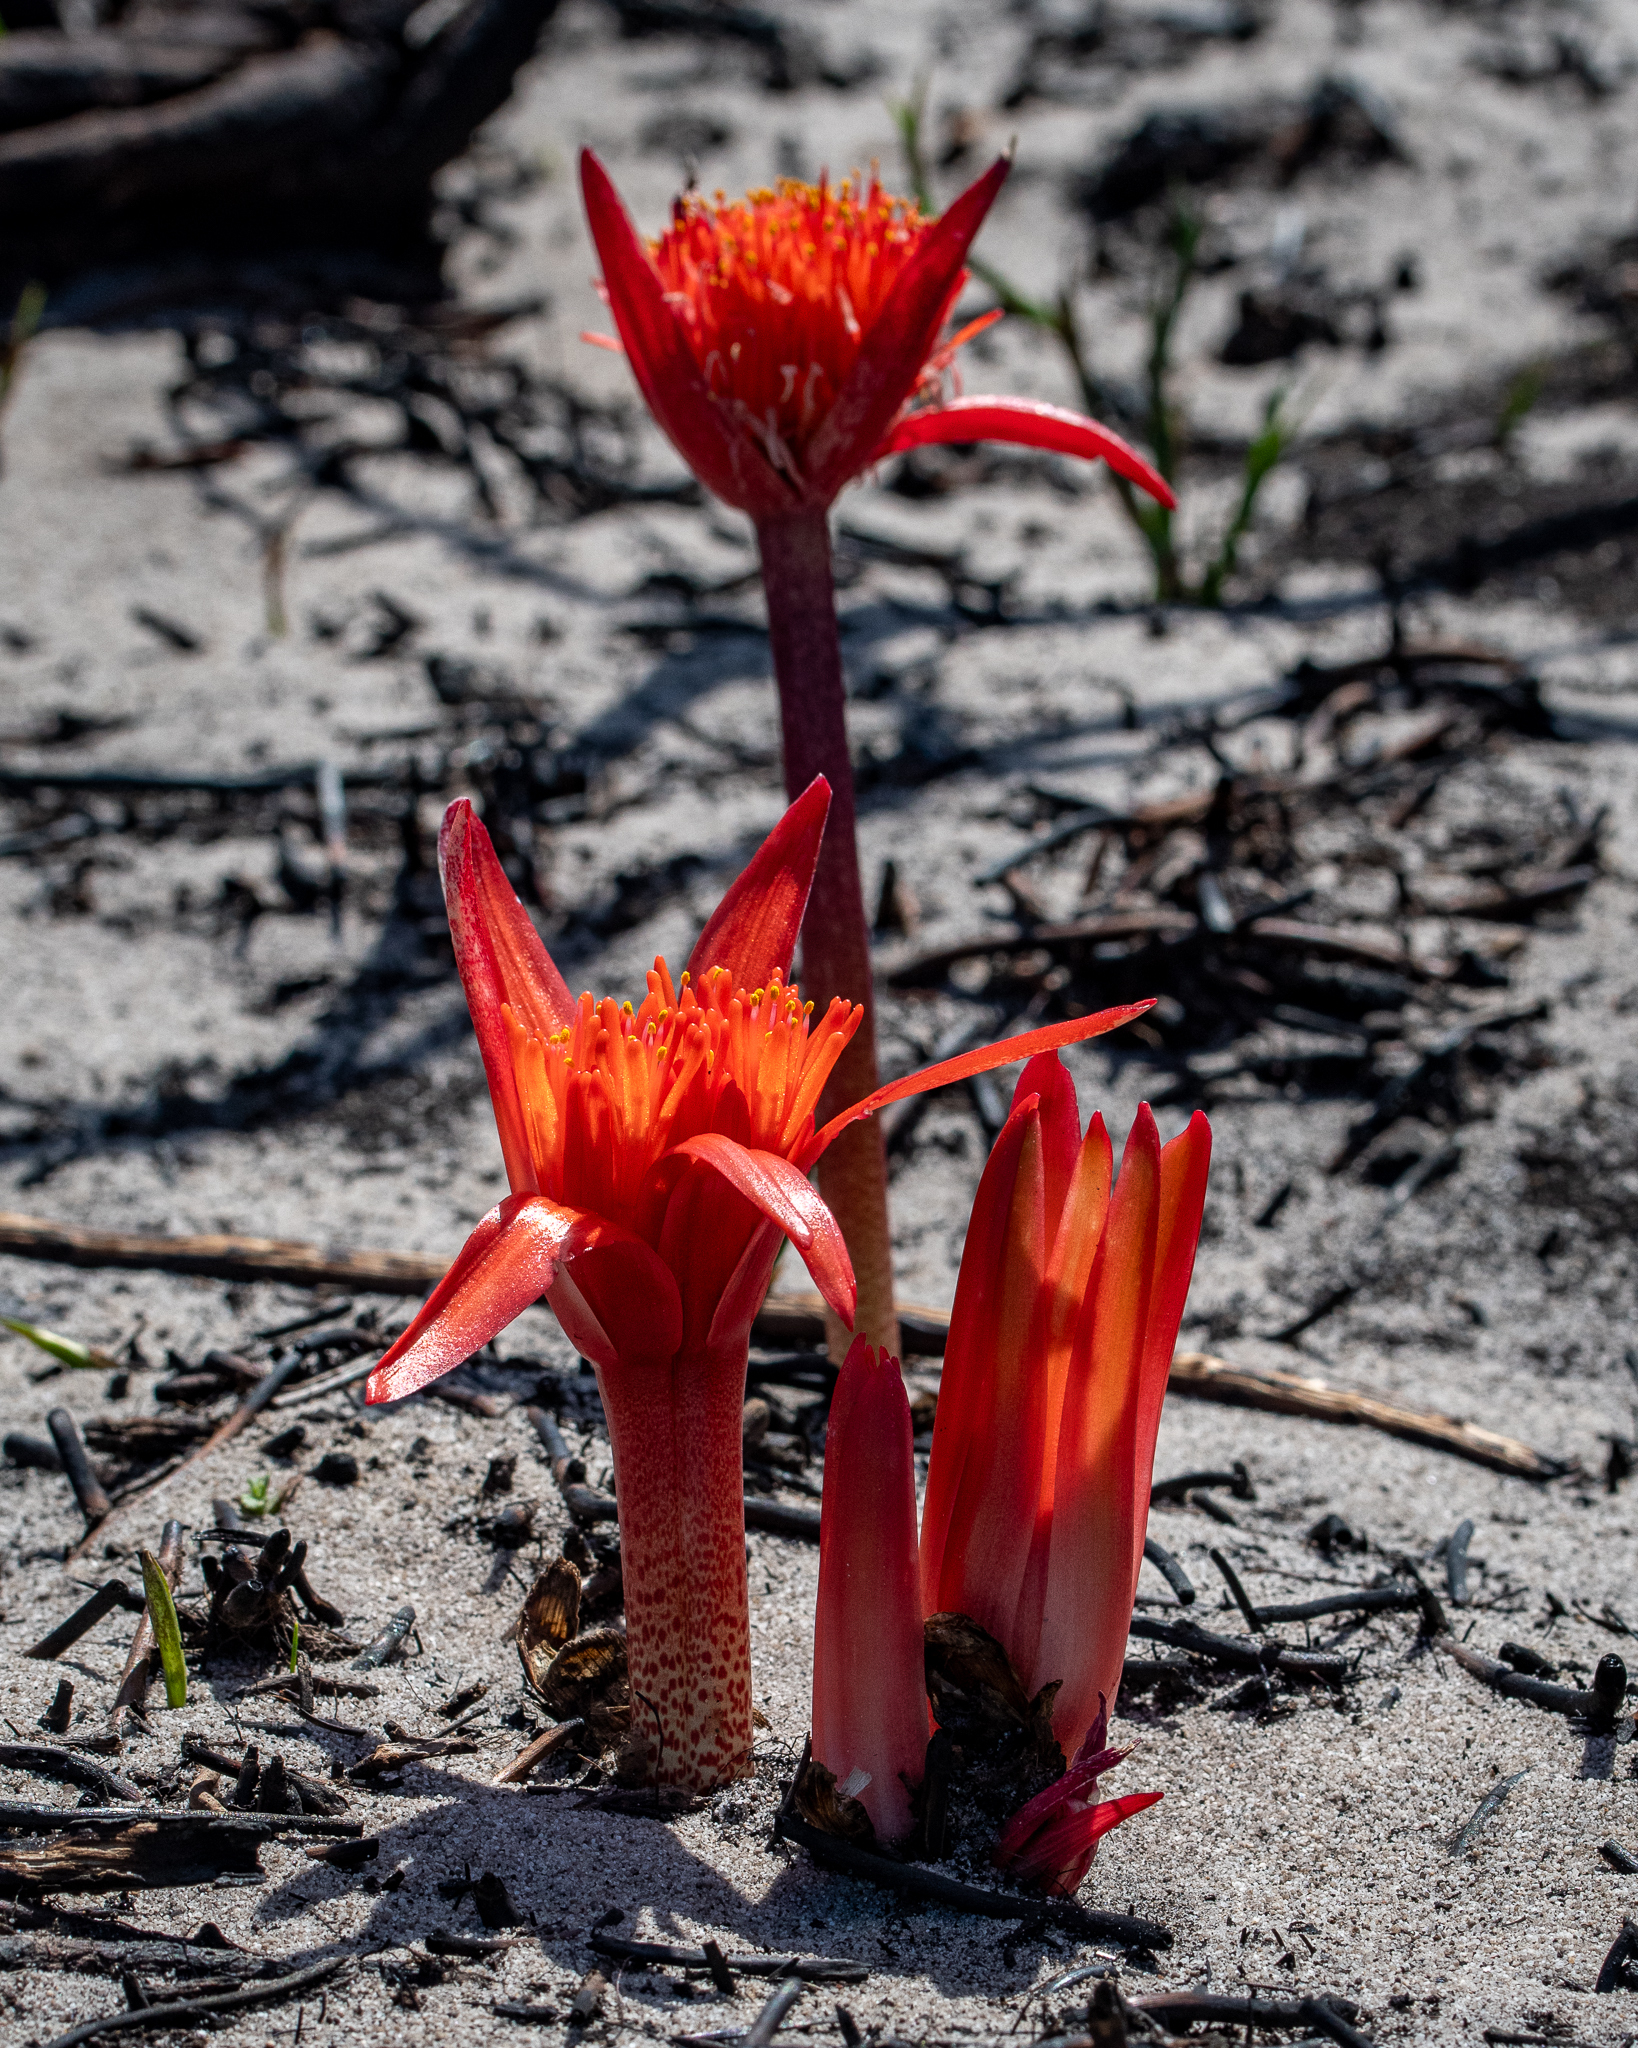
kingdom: Plantae
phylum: Tracheophyta
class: Liliopsida
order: Asparagales
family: Amaryllidaceae
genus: Haemanthus
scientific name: Haemanthus canaliculatus
